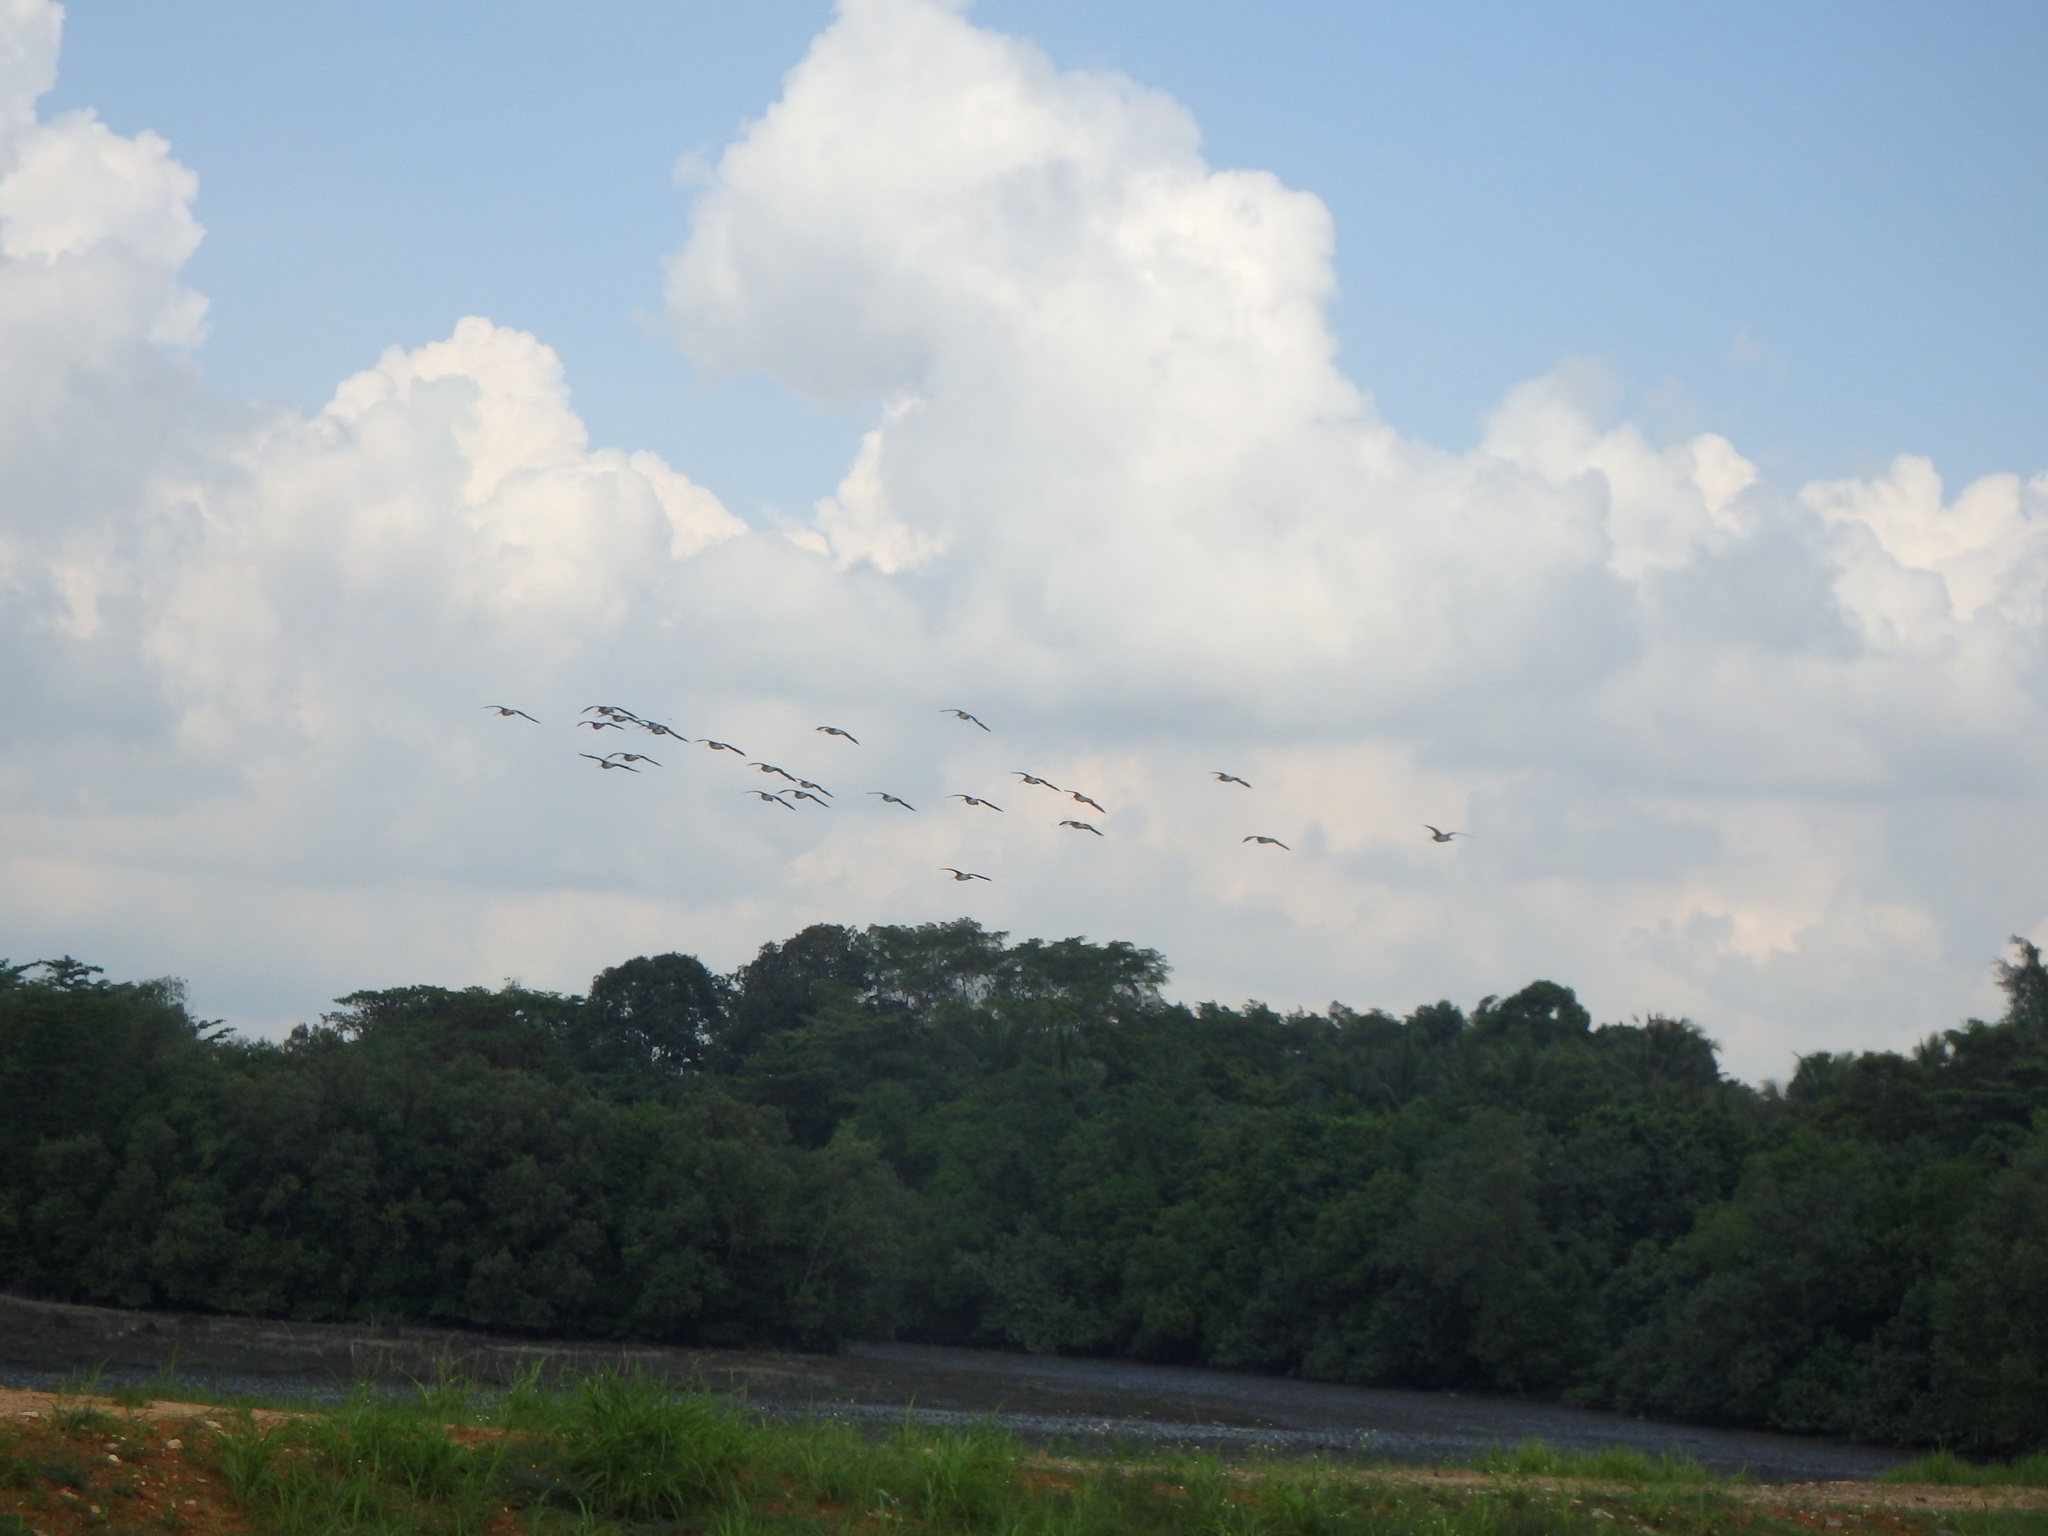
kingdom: Animalia
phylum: Chordata
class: Aves
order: Charadriiformes
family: Scolopacidae
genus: Numenius
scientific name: Numenius phaeopus
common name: Whimbrel
